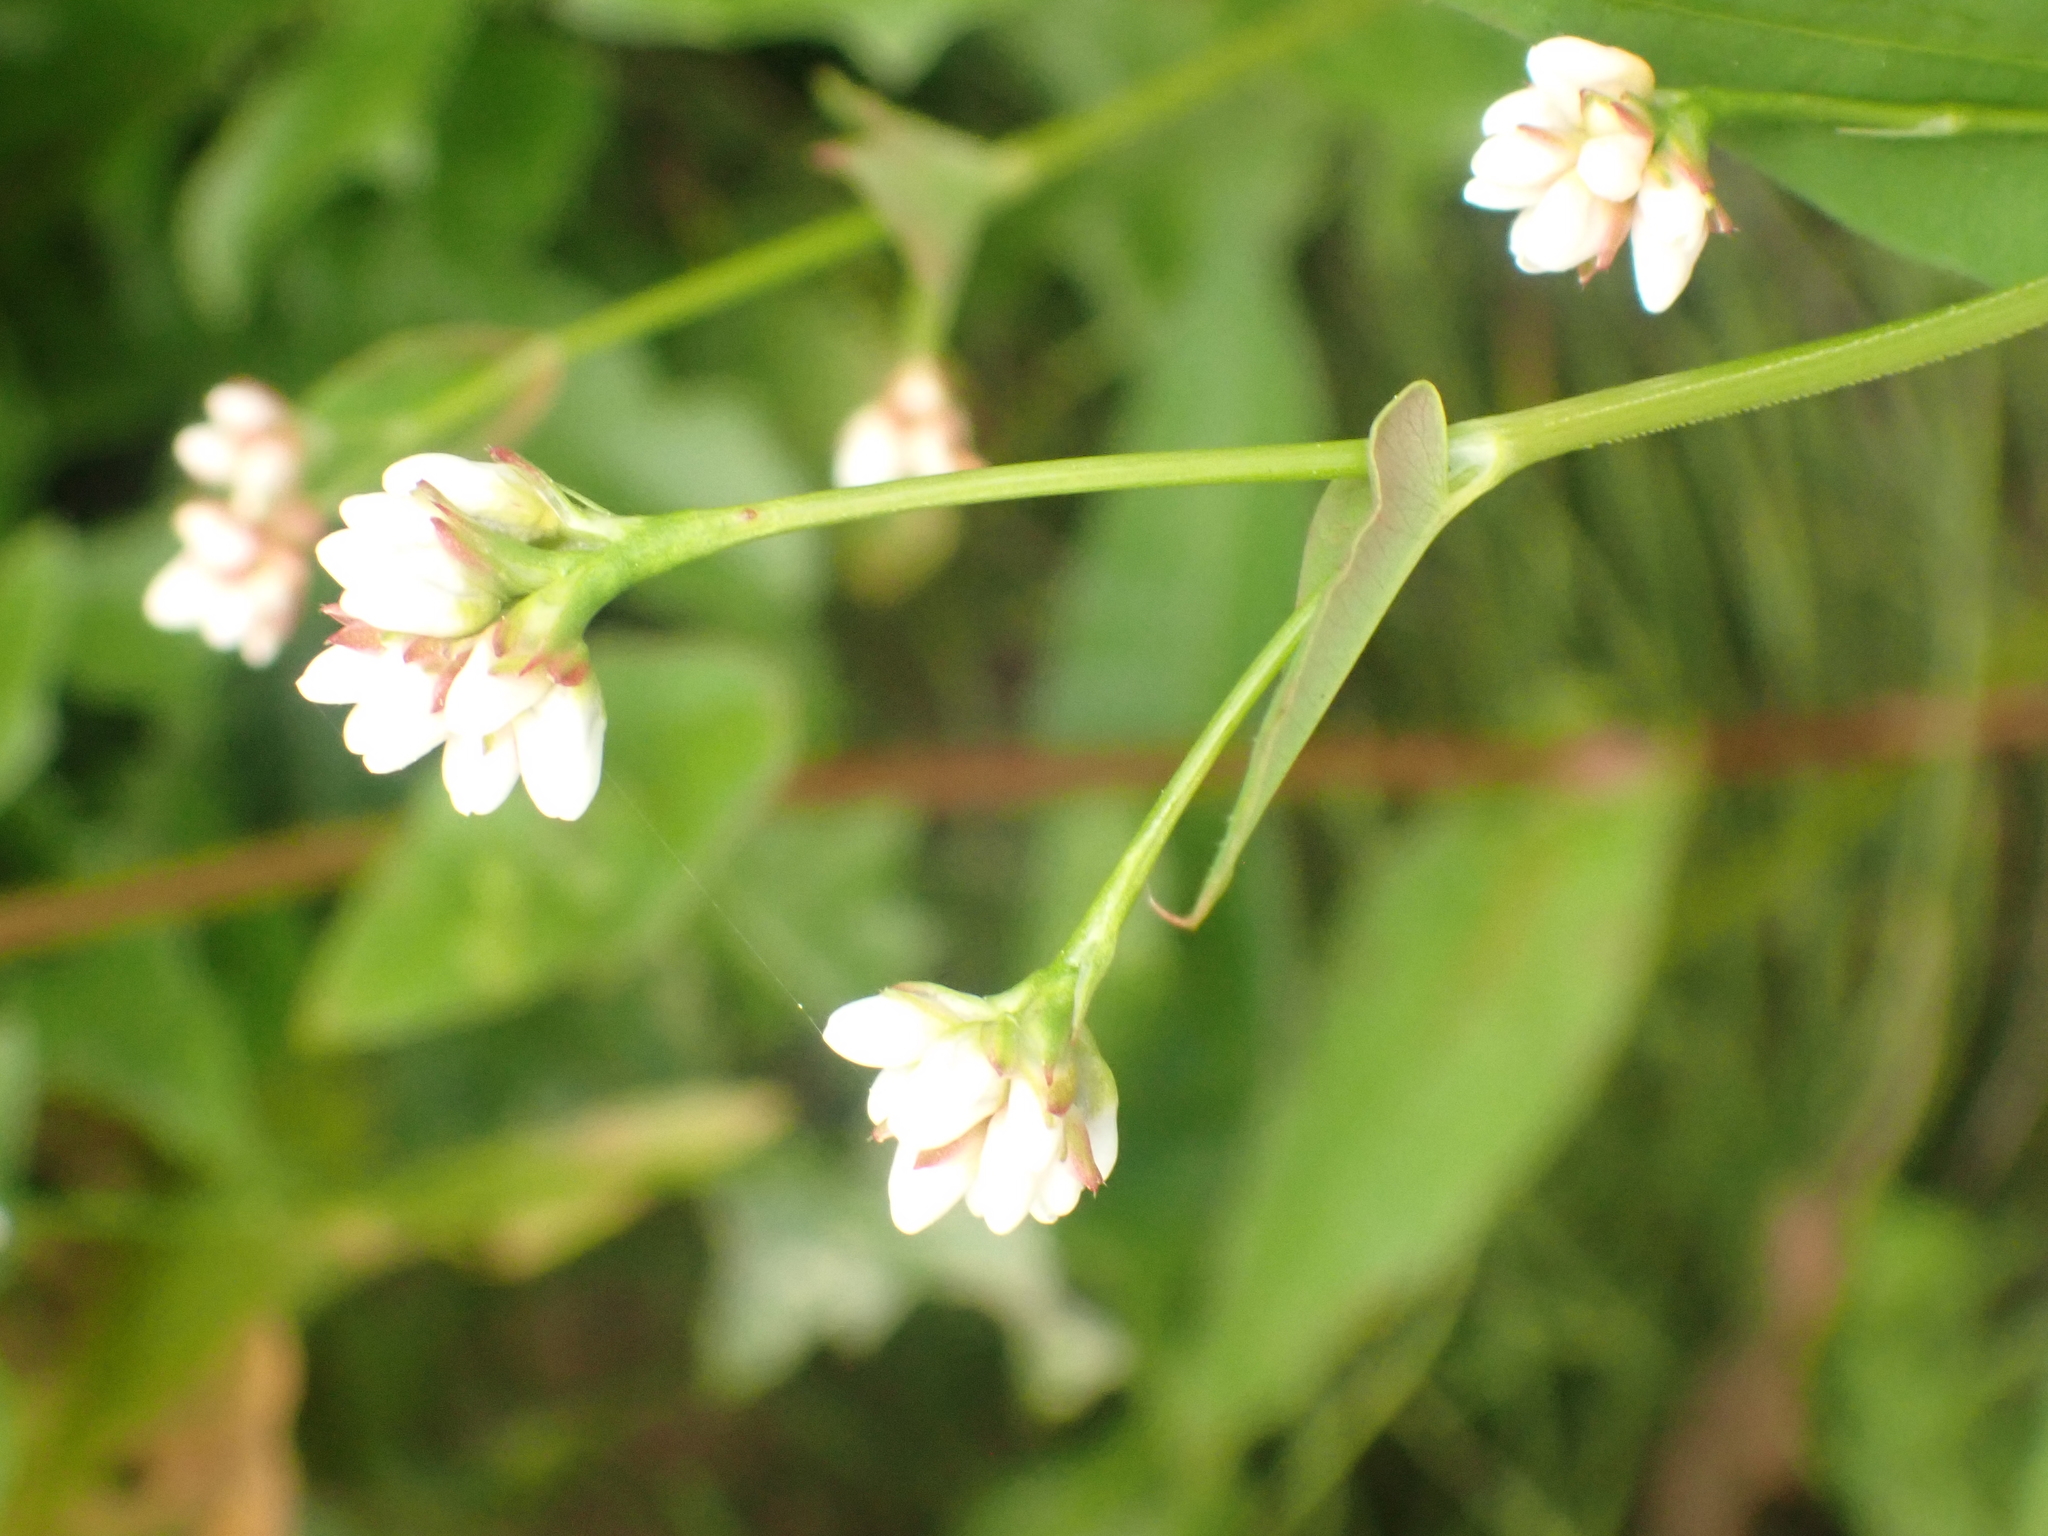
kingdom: Plantae
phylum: Tracheophyta
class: Magnoliopsida
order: Caryophyllales
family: Polygonaceae
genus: Persicaria
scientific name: Persicaria sagittata
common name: American tearthumb
